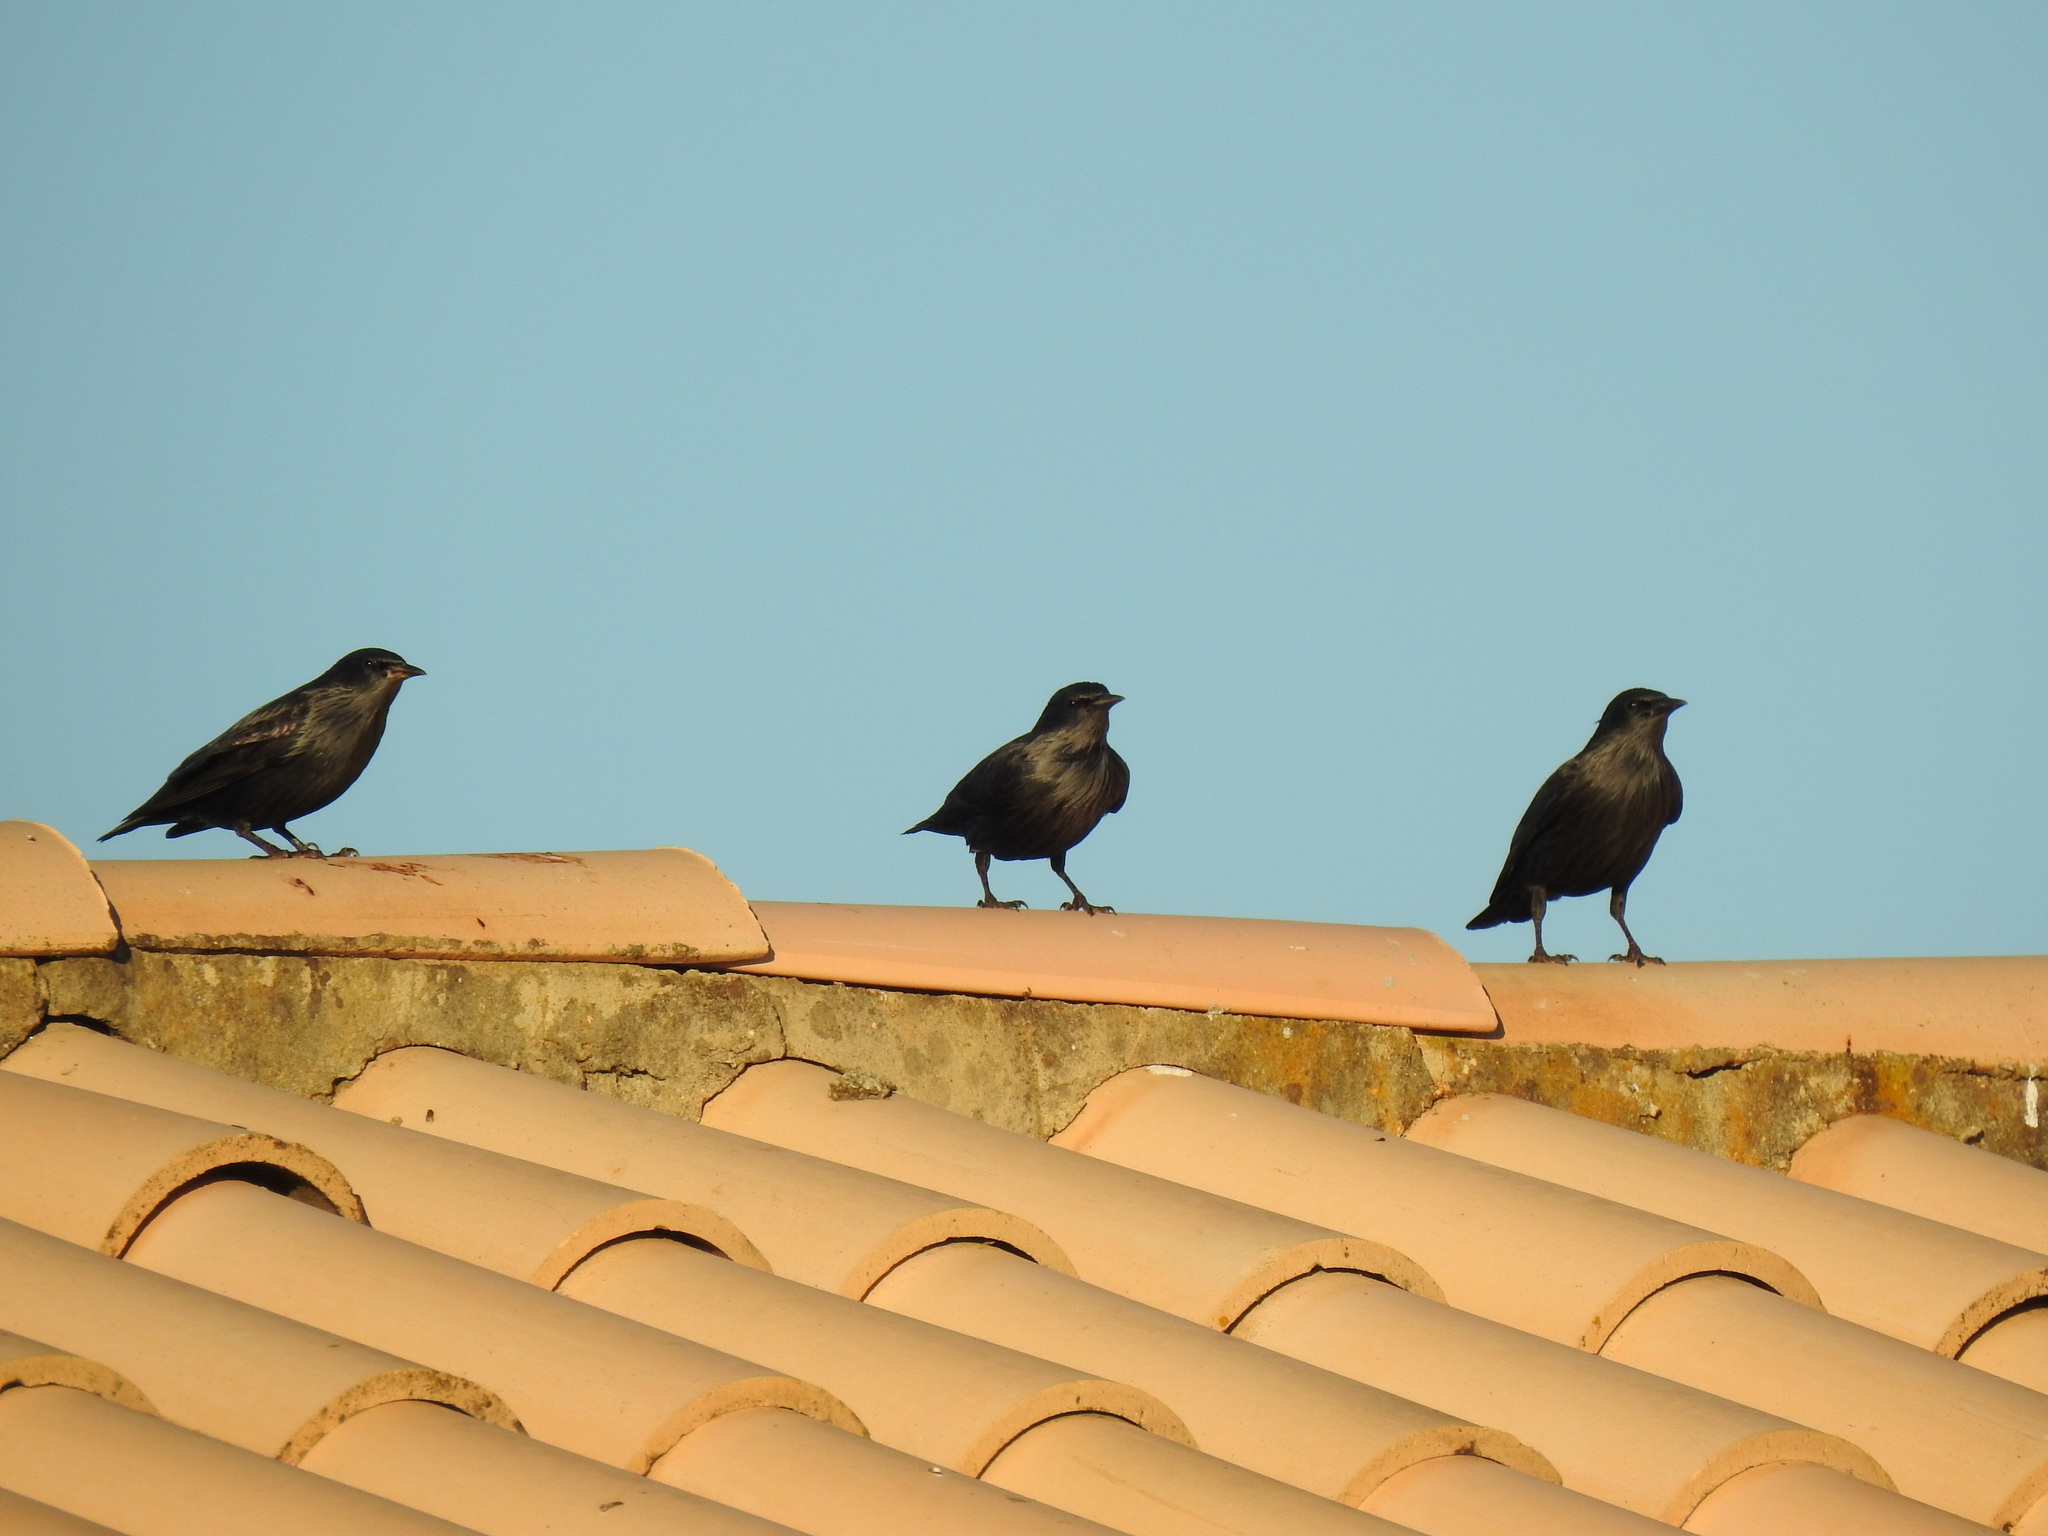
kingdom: Animalia
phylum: Chordata
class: Aves
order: Passeriformes
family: Sturnidae
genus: Sturnus
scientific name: Sturnus unicolor
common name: Spotless starling
